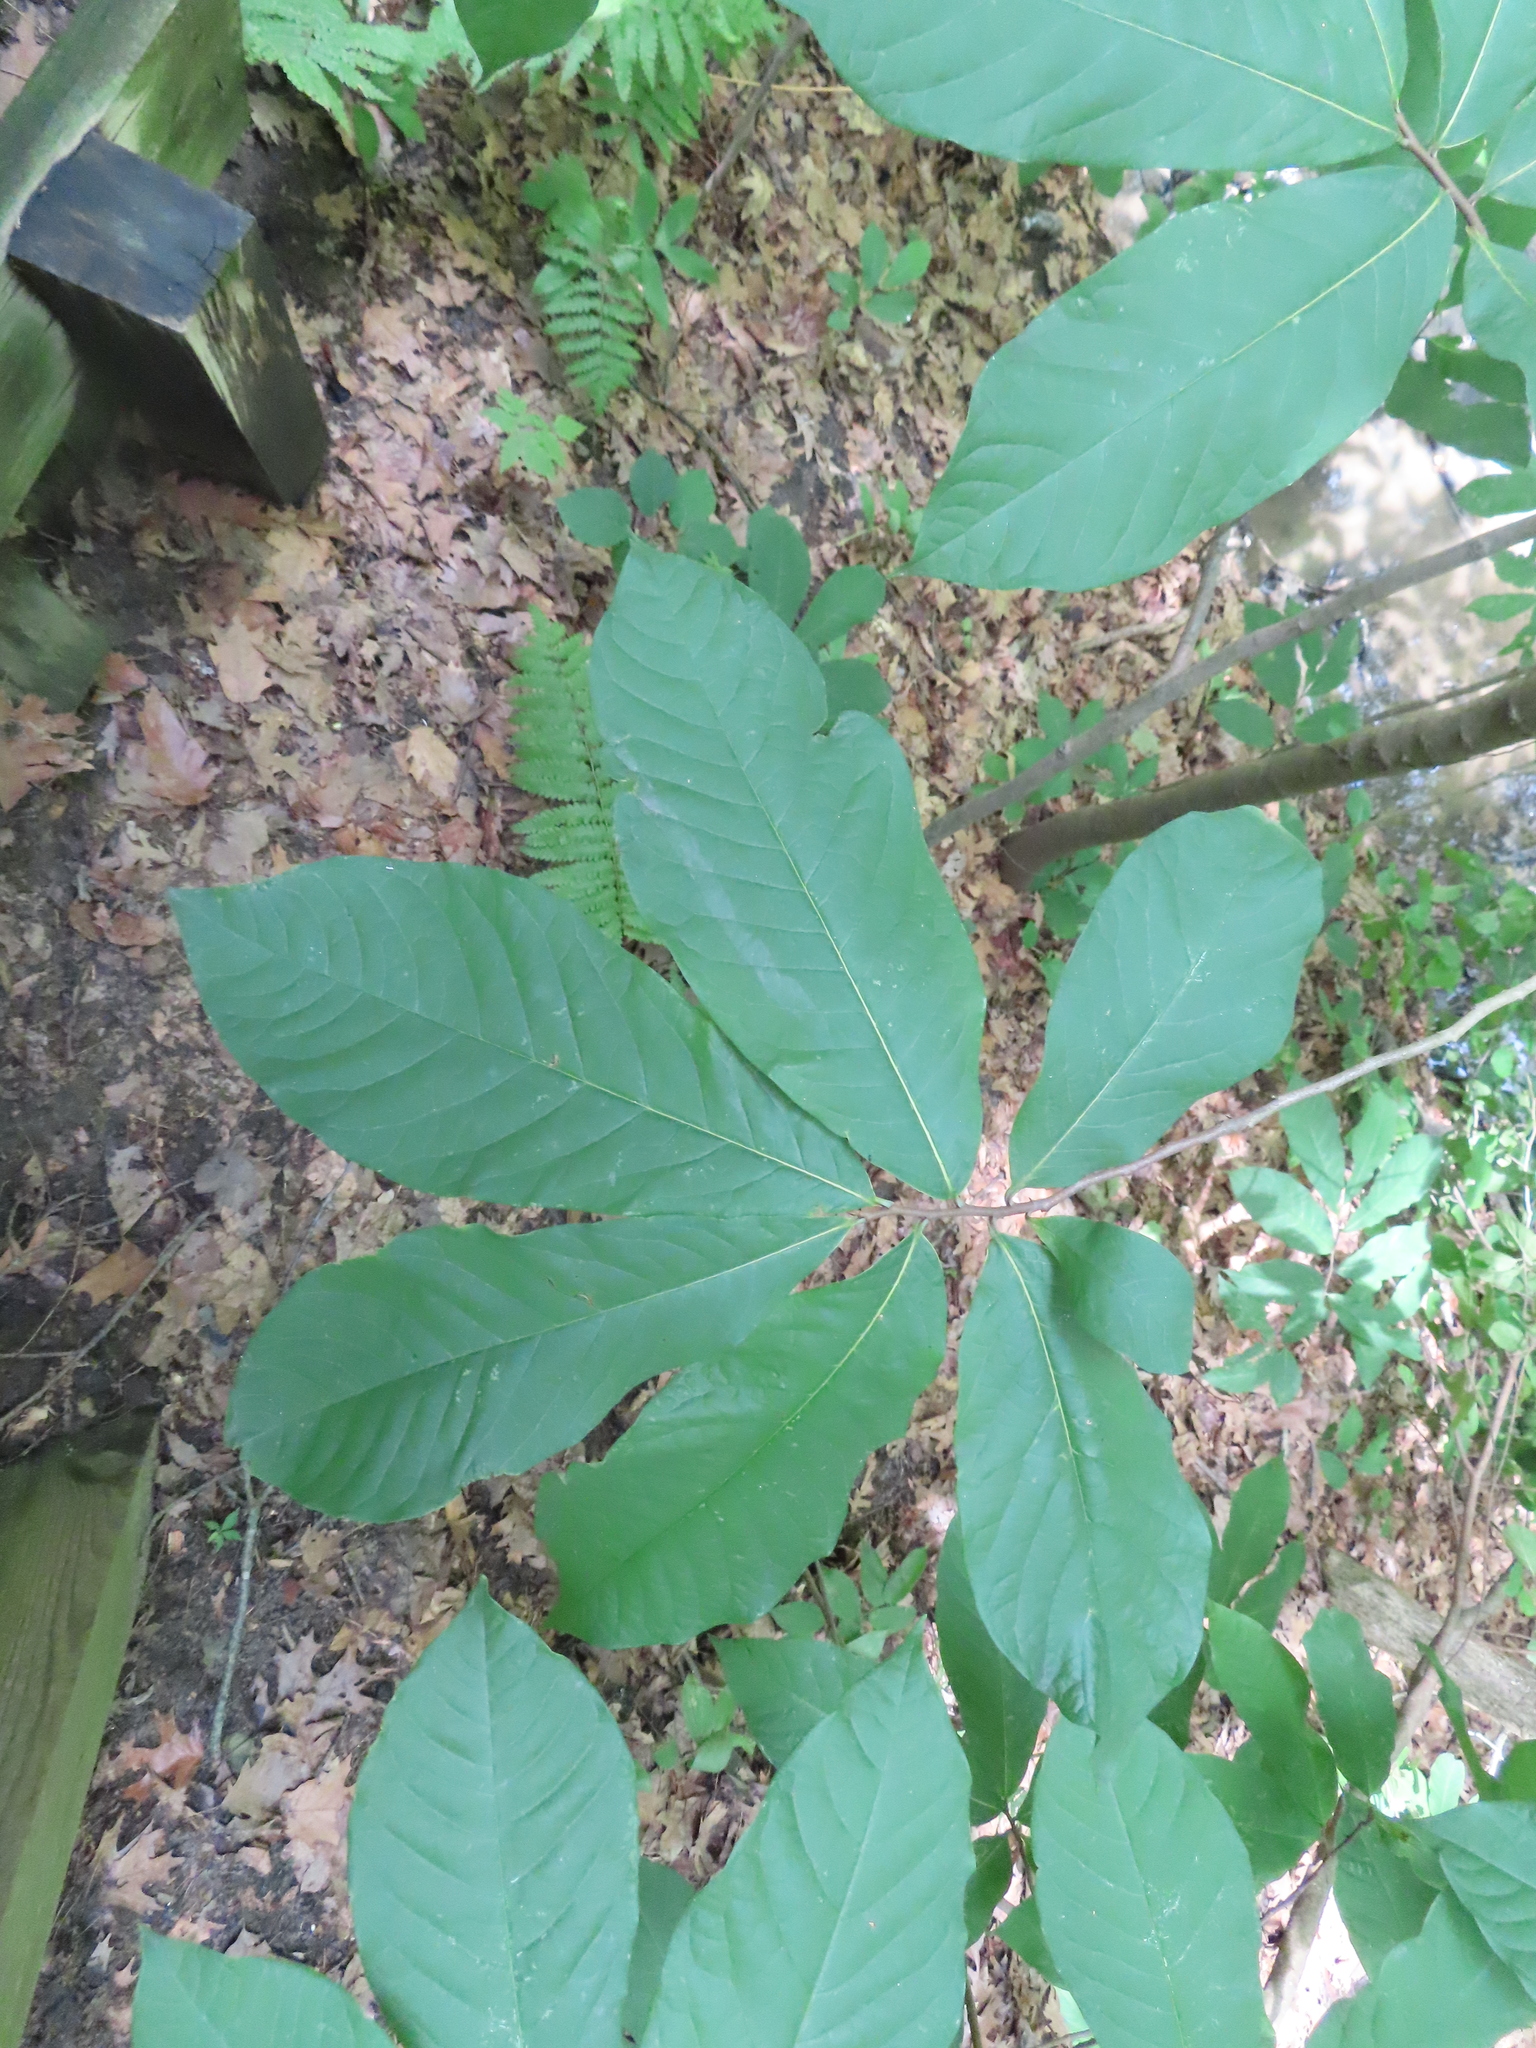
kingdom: Plantae
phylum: Tracheophyta
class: Magnoliopsida
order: Magnoliales
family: Annonaceae
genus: Asimina
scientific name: Asimina triloba
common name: Dog-banana
